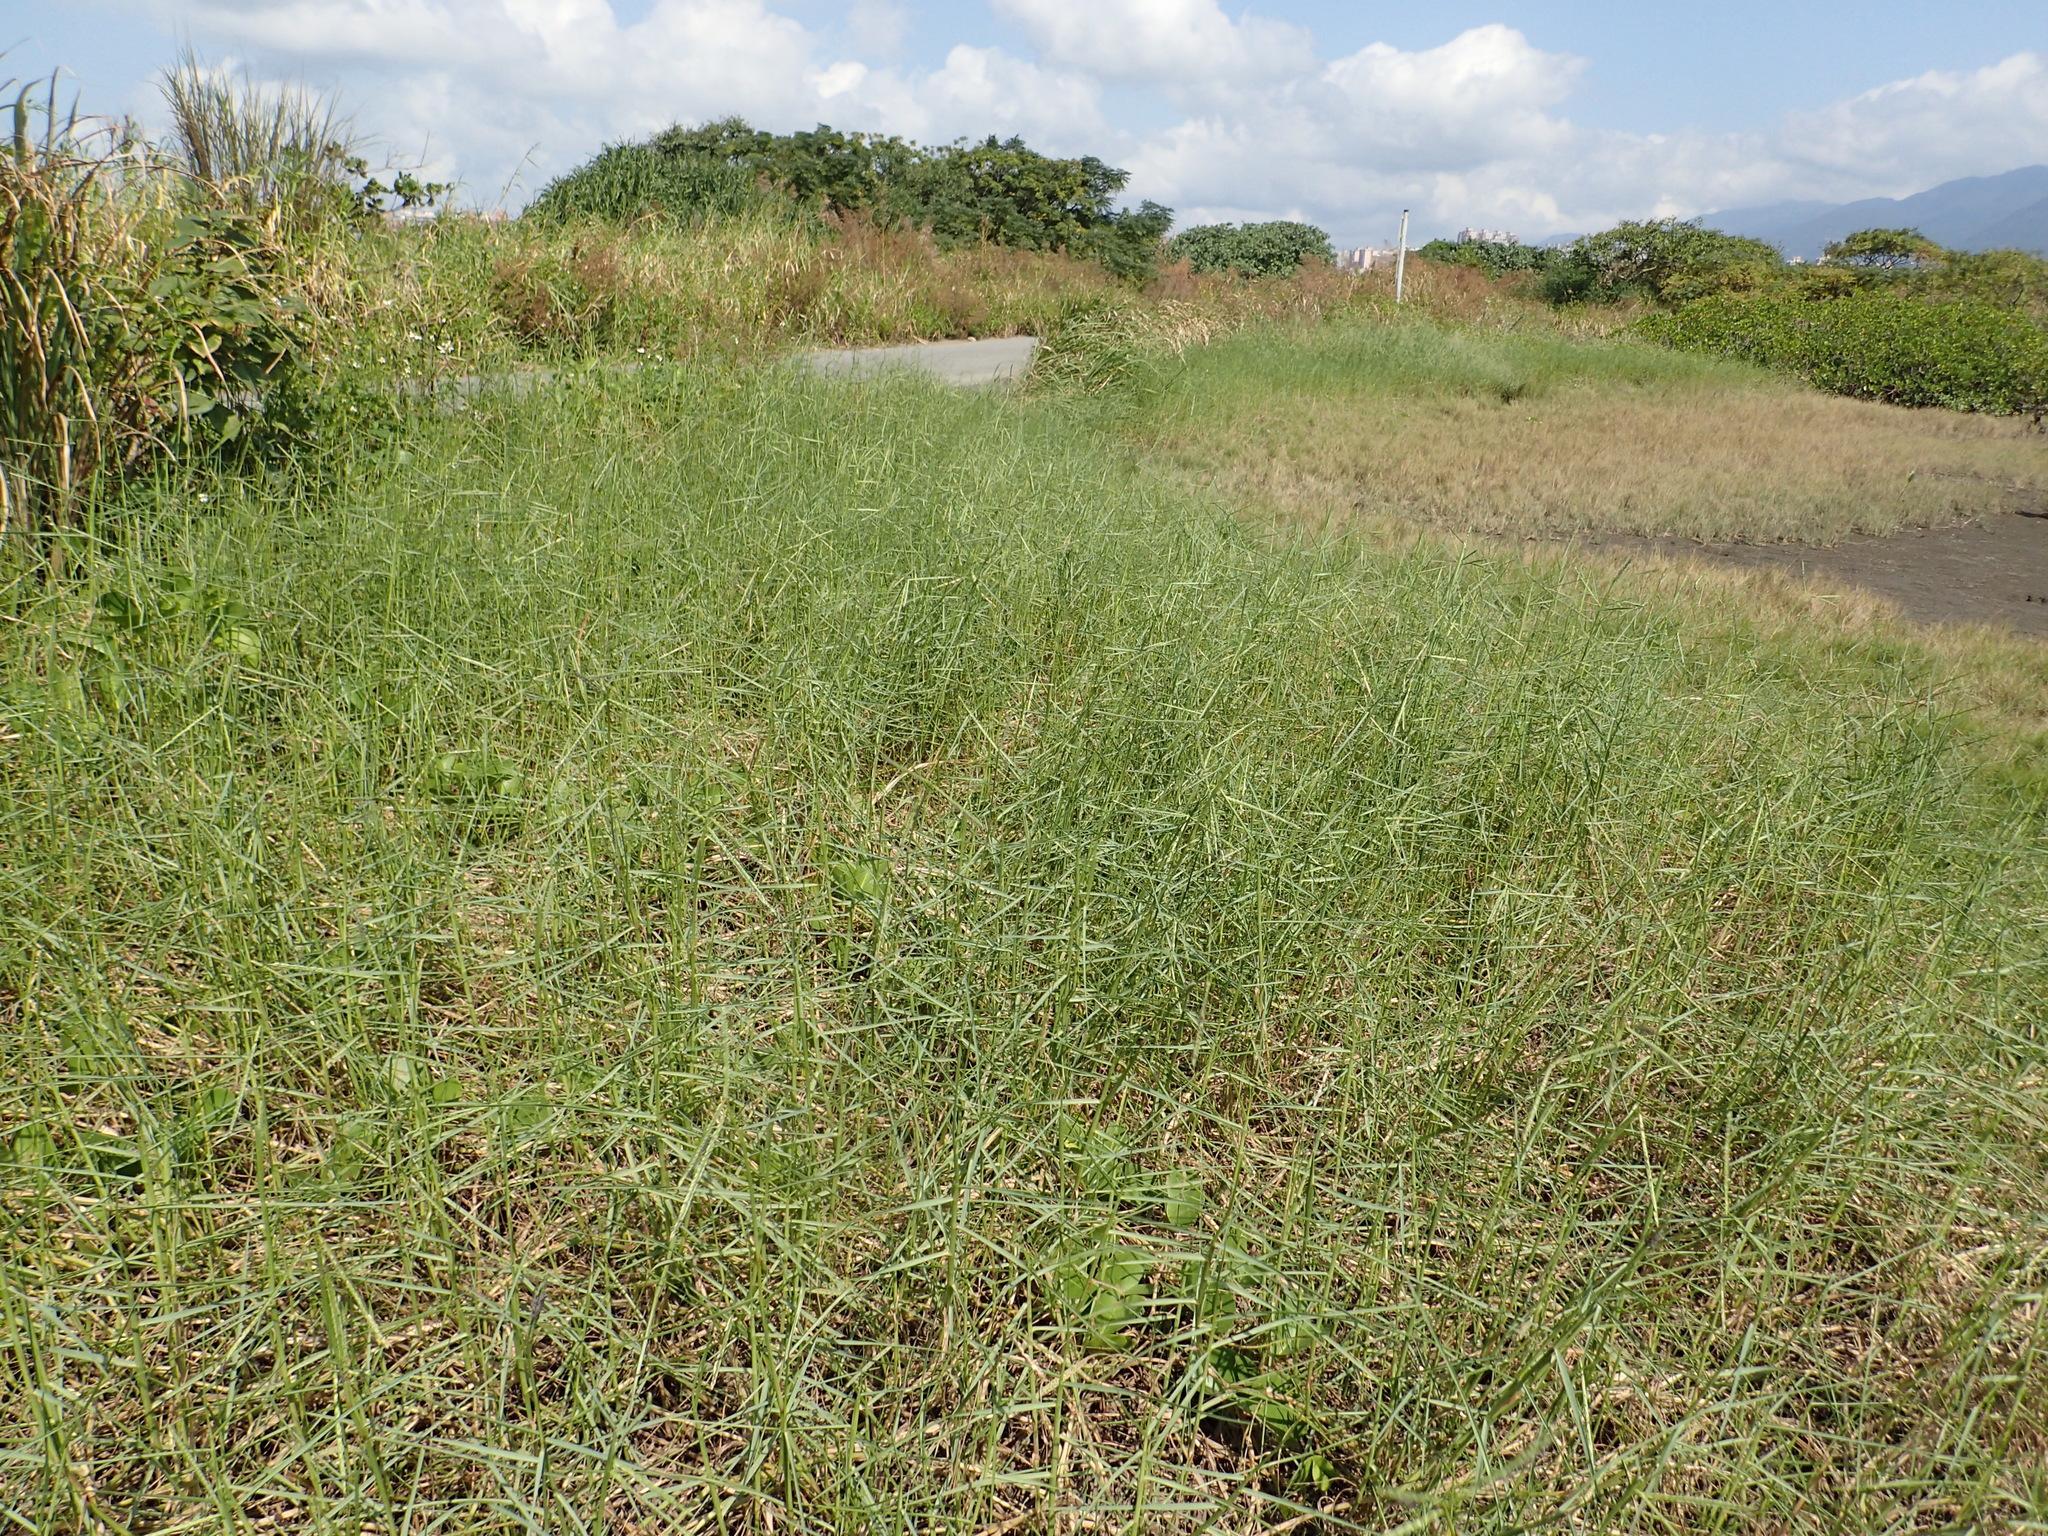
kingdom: Plantae
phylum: Tracheophyta
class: Liliopsida
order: Poales
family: Poaceae
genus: Paspalum
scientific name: Paspalum vaginatum
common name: Seashore paspalum
